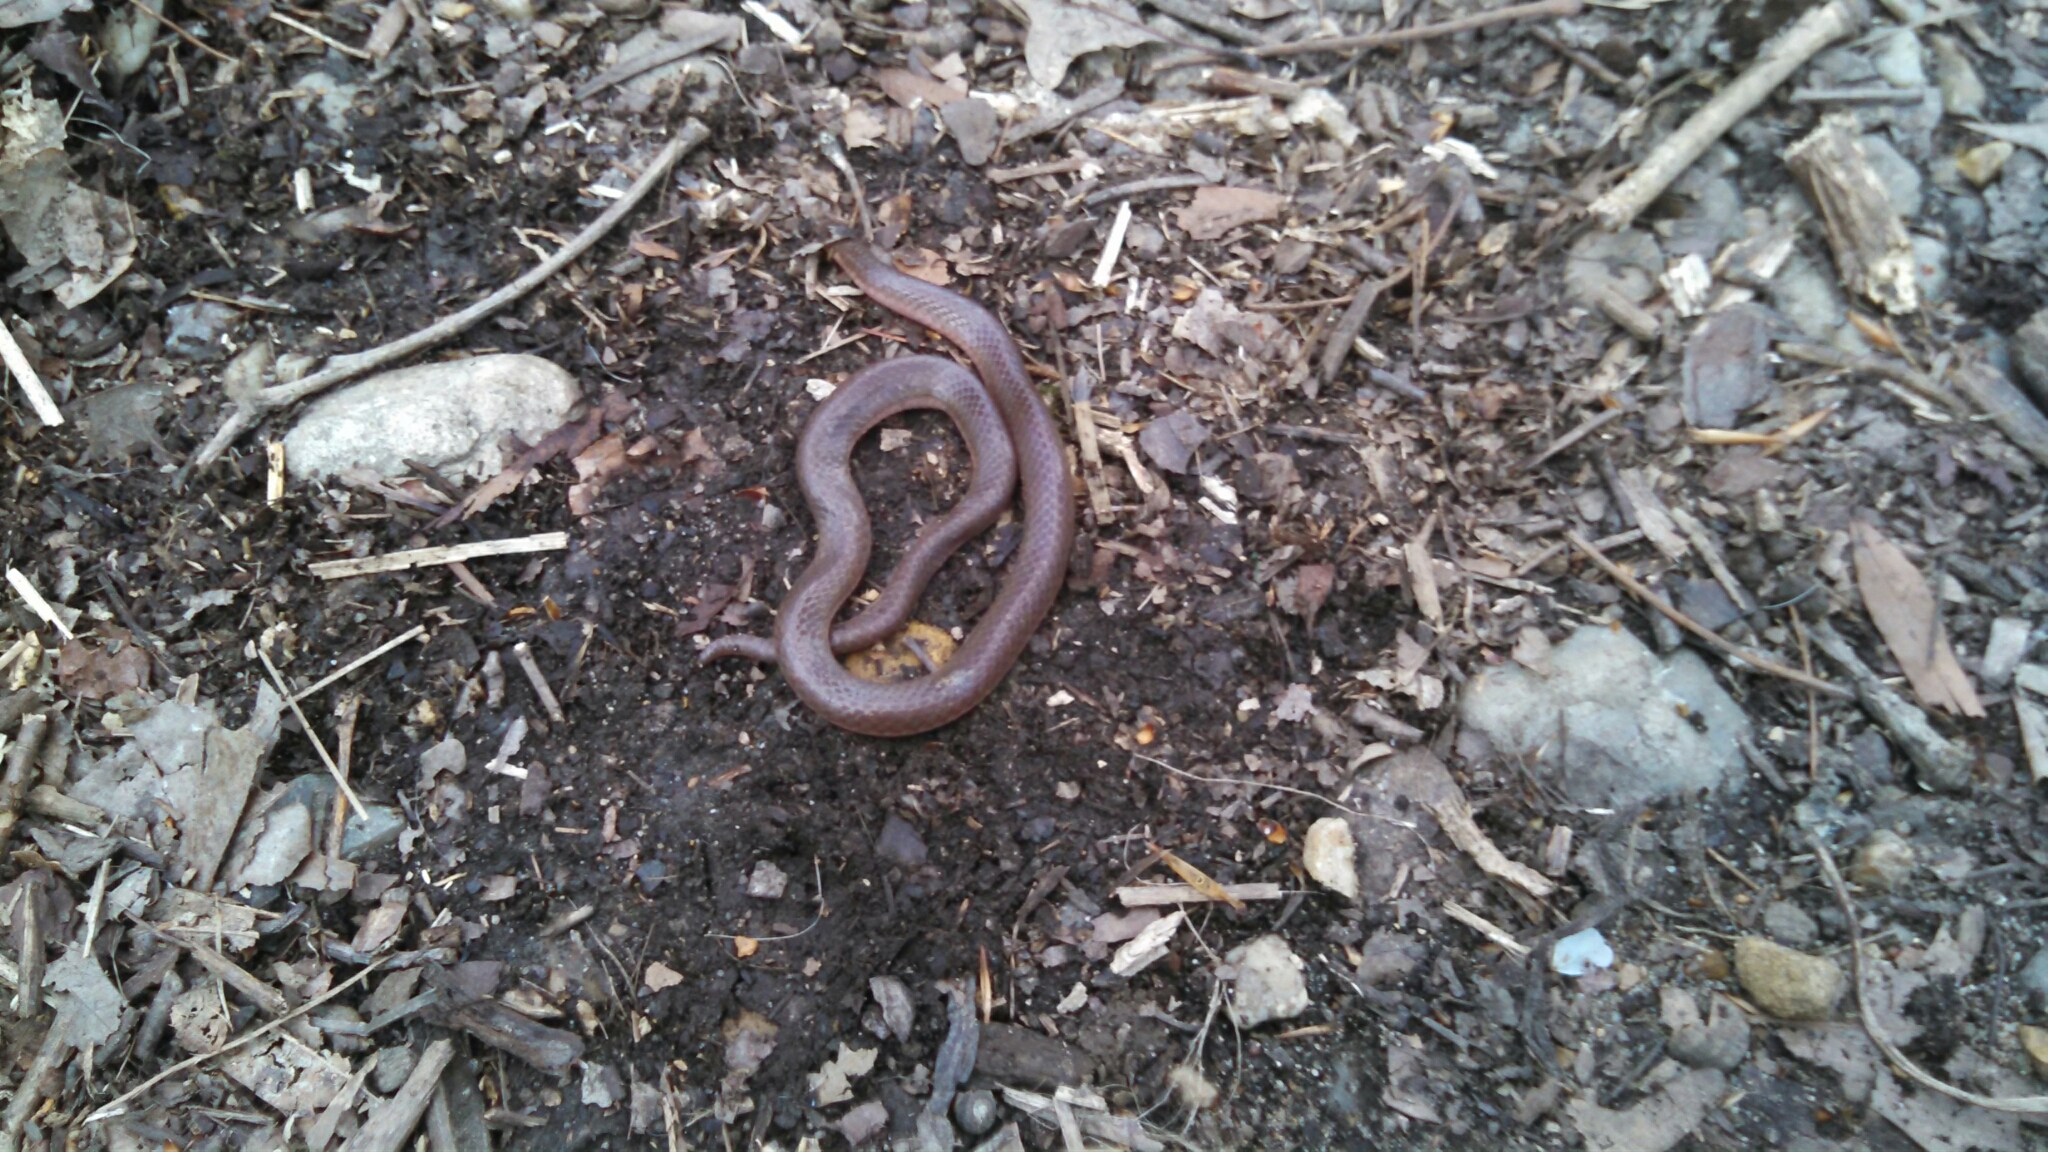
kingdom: Animalia
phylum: Chordata
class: Squamata
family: Colubridae
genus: Carphophis
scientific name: Carphophis amoenus
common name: Eastern worm snake
